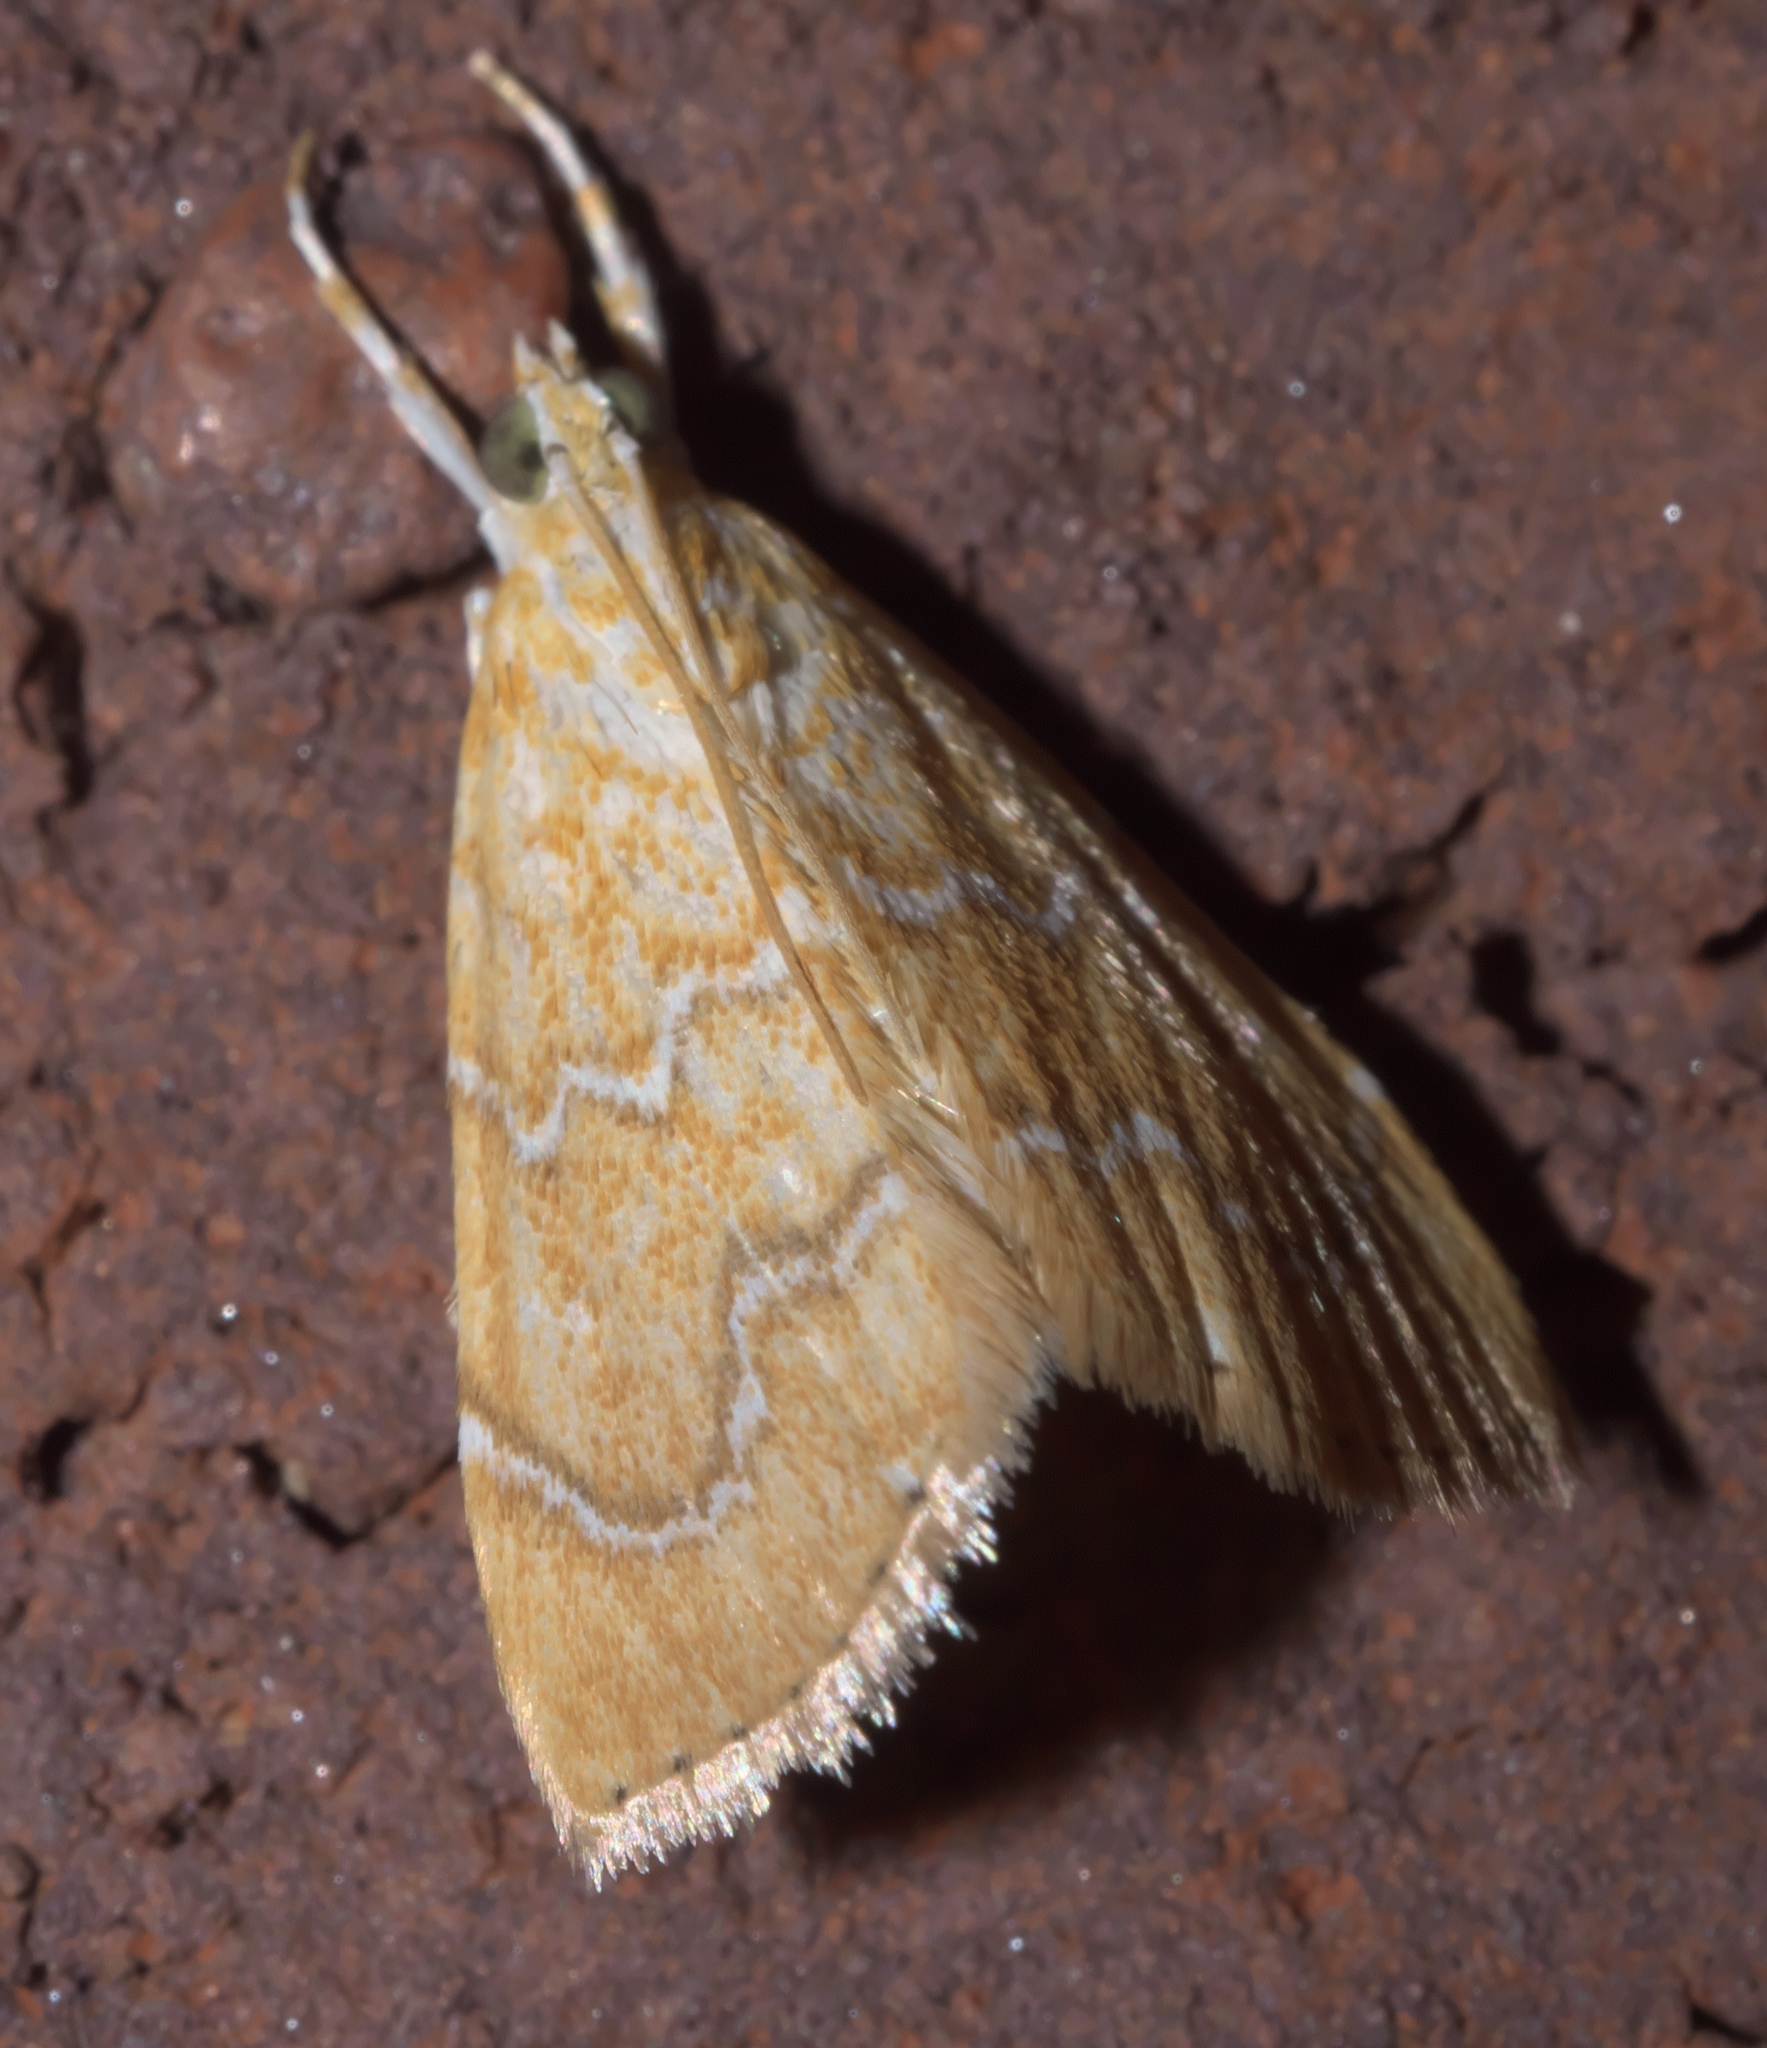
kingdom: Animalia
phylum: Arthropoda
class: Insecta
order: Lepidoptera
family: Crambidae
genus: Glaphyria
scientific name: Glaphyria sesquistrialis
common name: White-roped glaphyria
